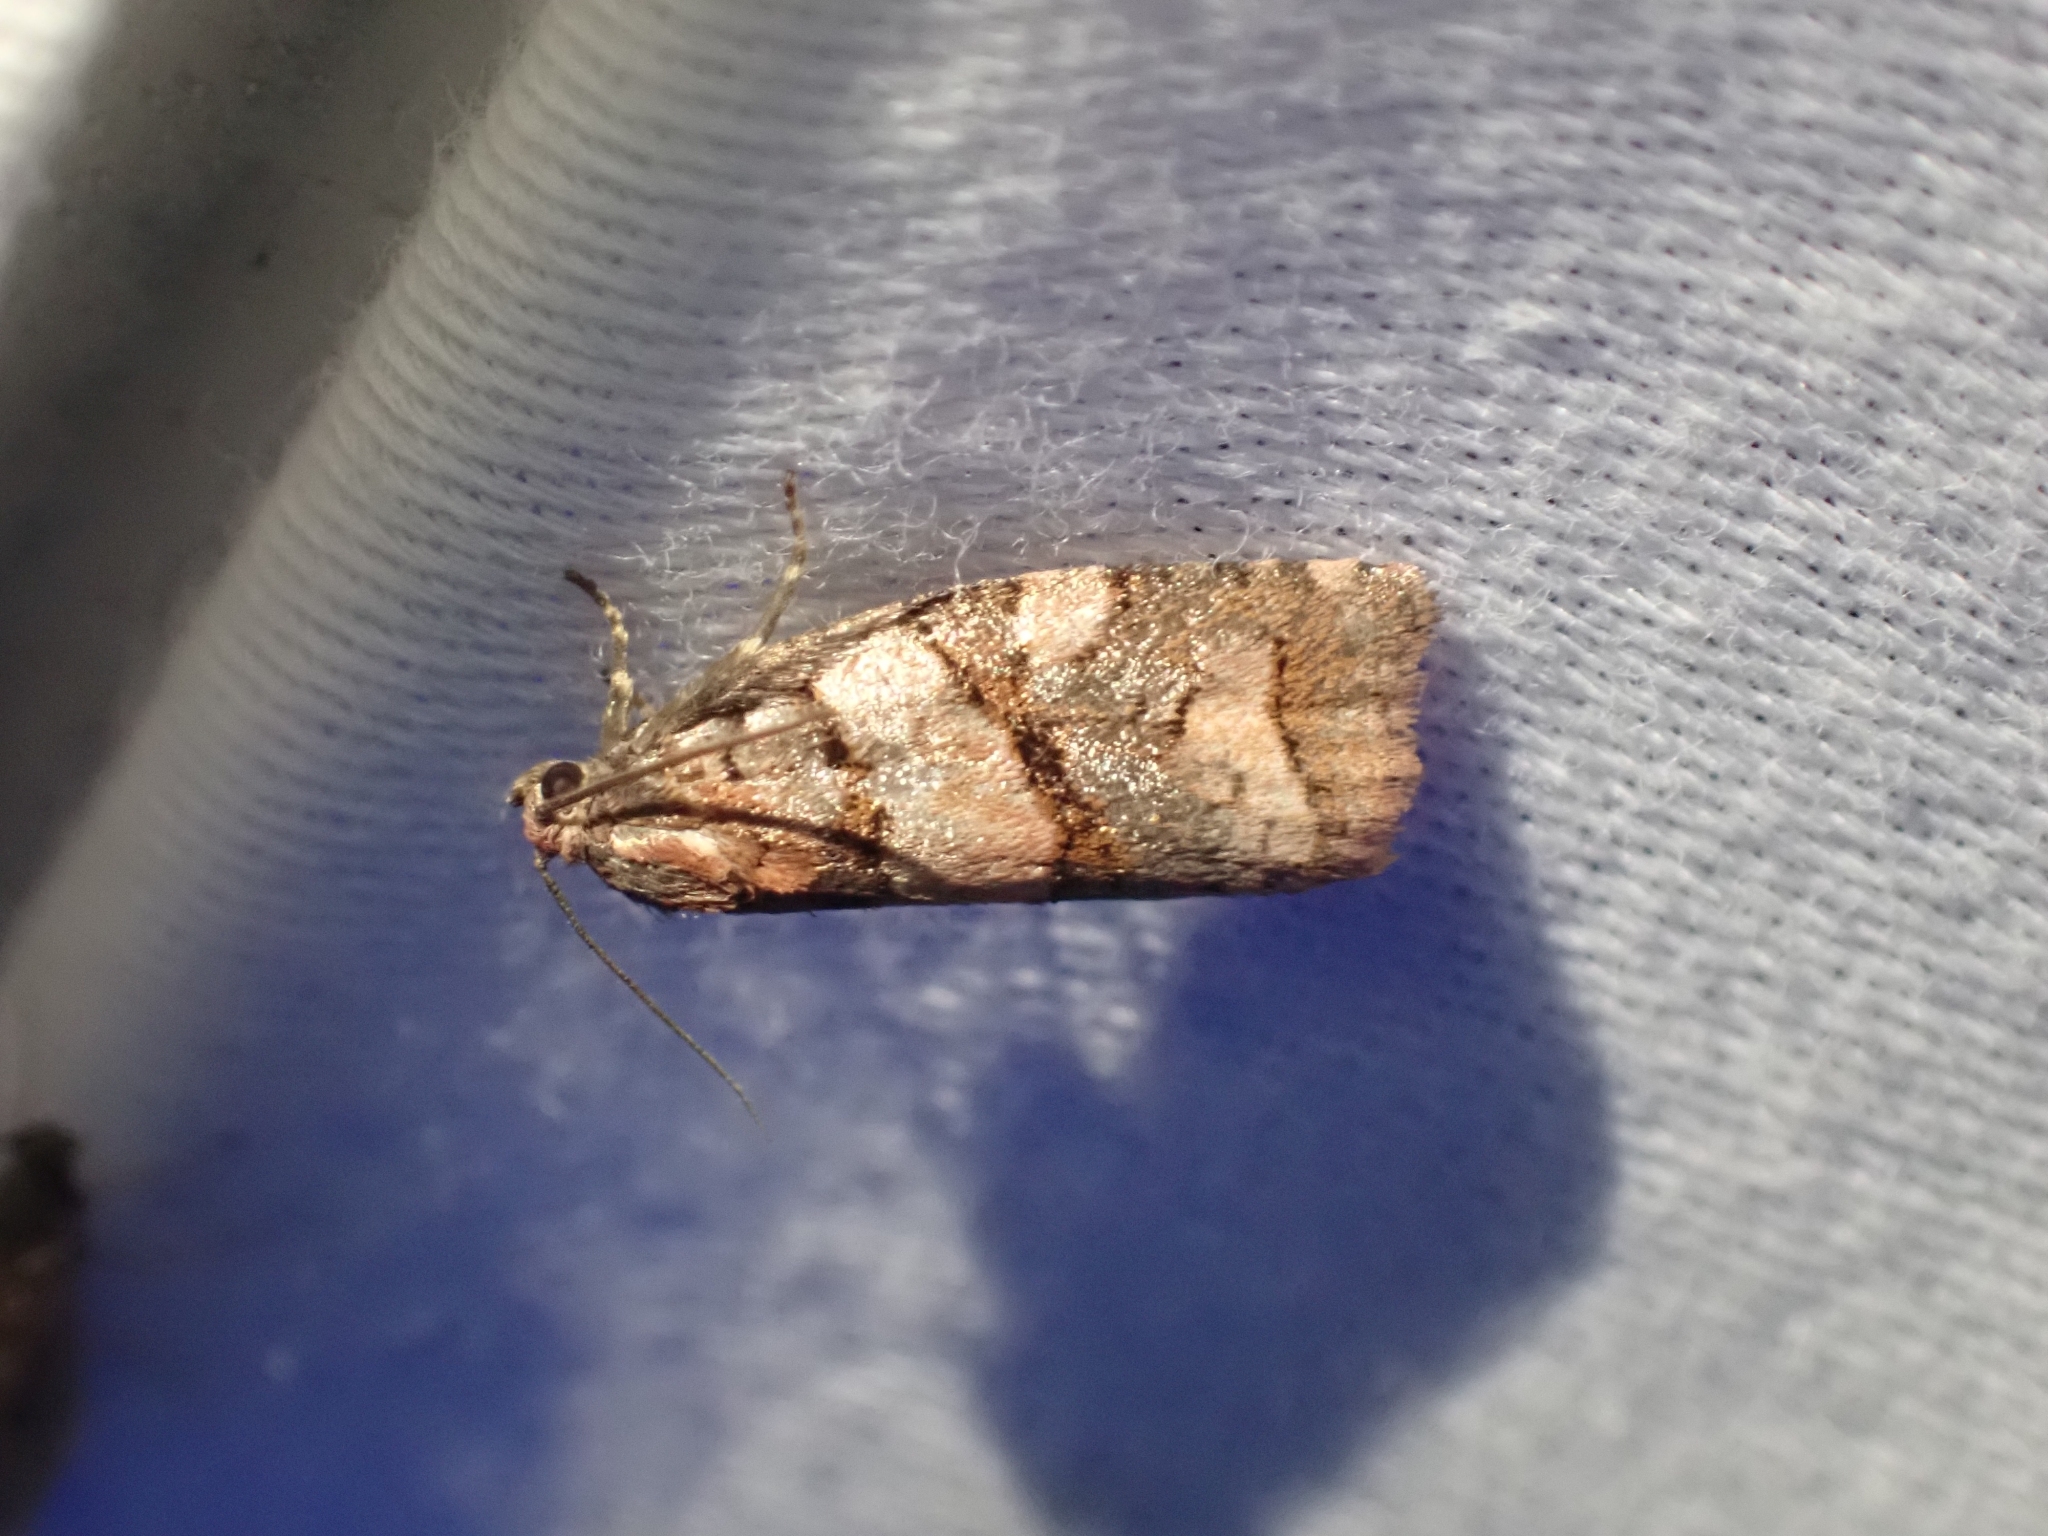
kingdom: Animalia
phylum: Arthropoda
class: Insecta
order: Lepidoptera
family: Tortricidae
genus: Archips
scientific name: Archips alberta
